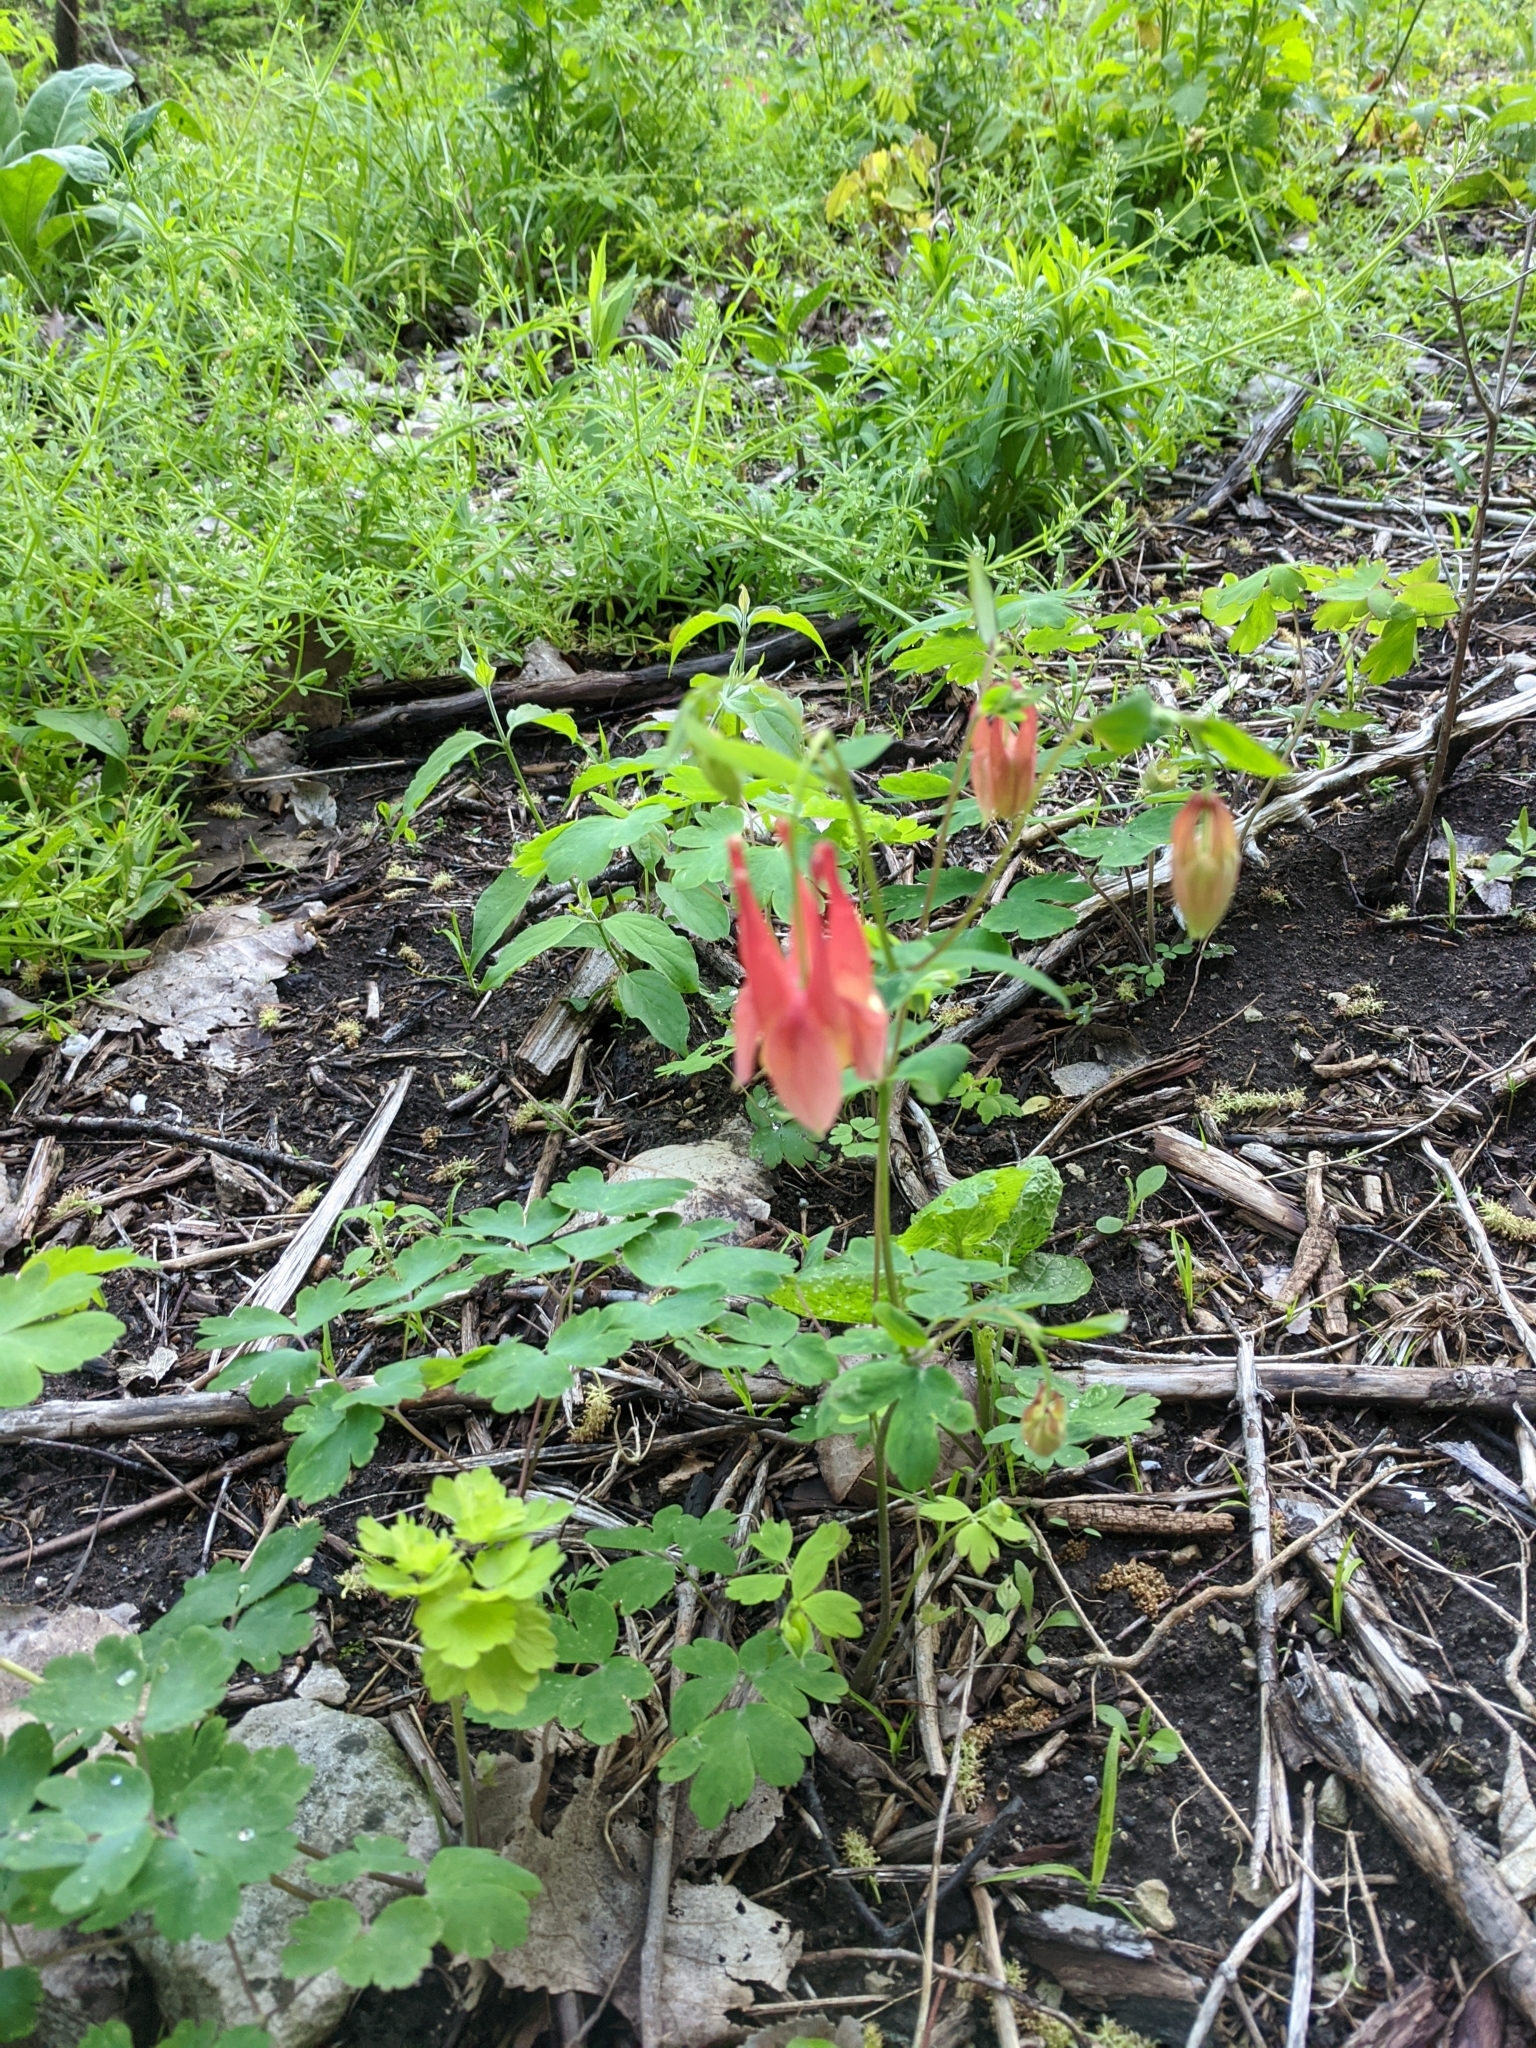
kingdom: Plantae
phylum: Tracheophyta
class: Magnoliopsida
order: Ranunculales
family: Ranunculaceae
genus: Aquilegia
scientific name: Aquilegia canadensis
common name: American columbine
